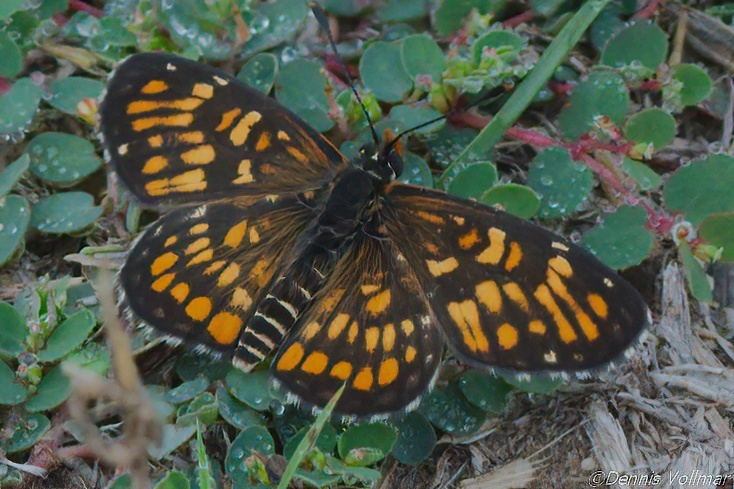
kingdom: Animalia
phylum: Arthropoda
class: Insecta
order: Lepidoptera
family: Nymphalidae
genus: Chlosyne
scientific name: Chlosyne definita
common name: Definite patch
